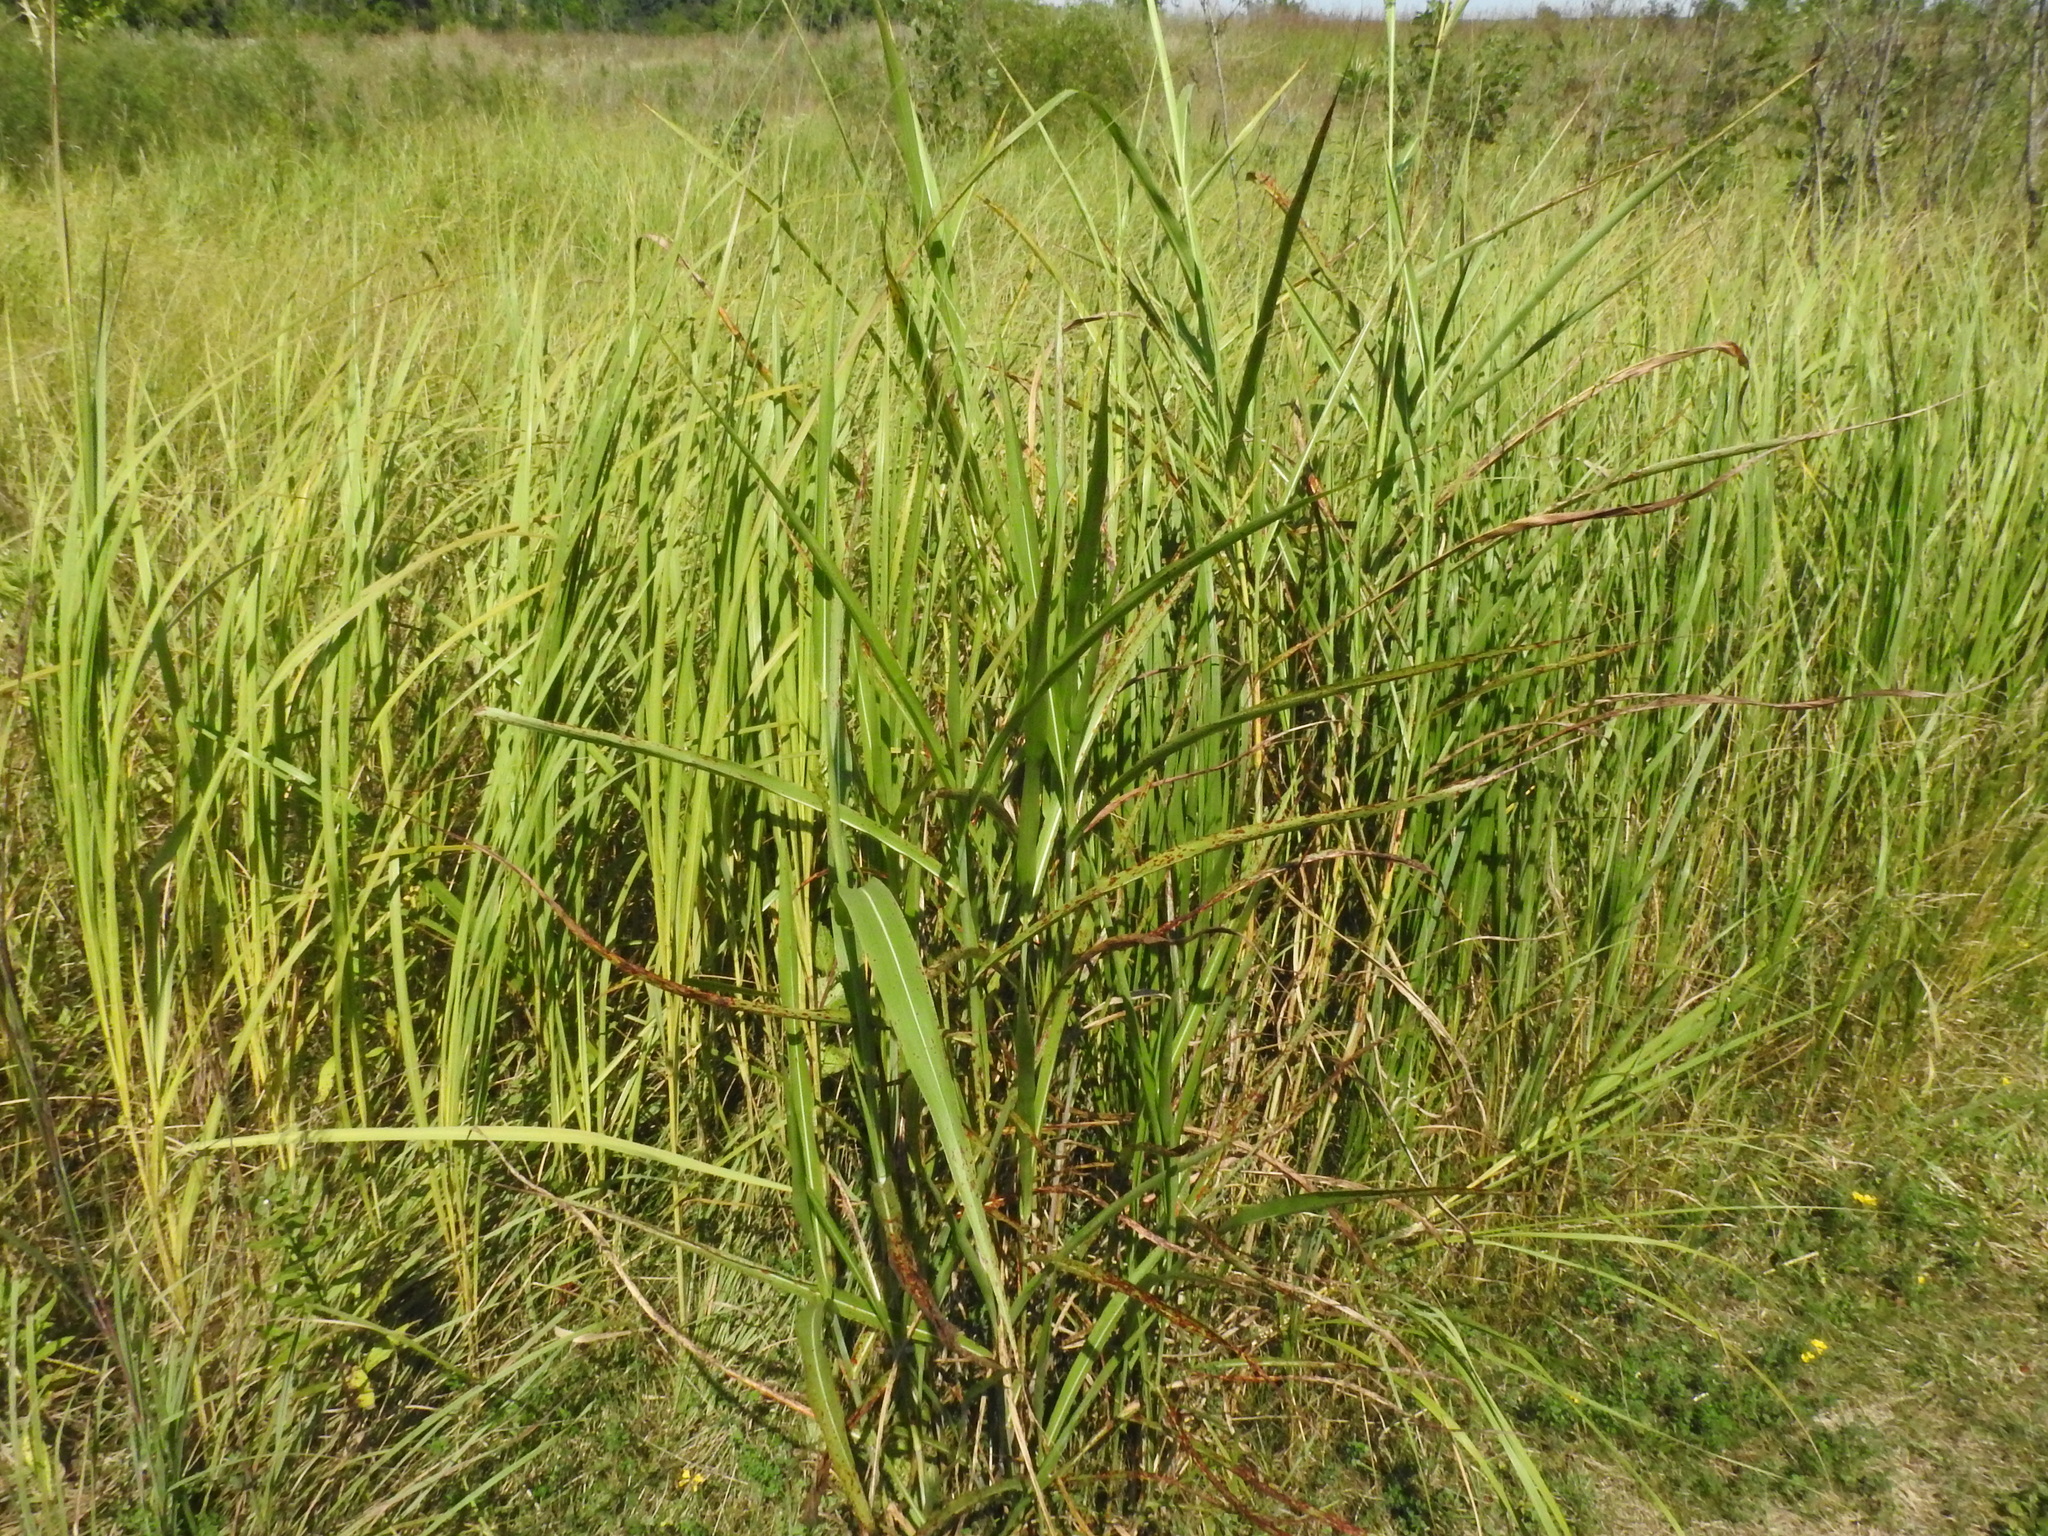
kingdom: Plantae
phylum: Tracheophyta
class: Liliopsida
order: Poales
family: Poaceae
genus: Sorghum
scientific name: Sorghum halepense
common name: Johnson-grass
